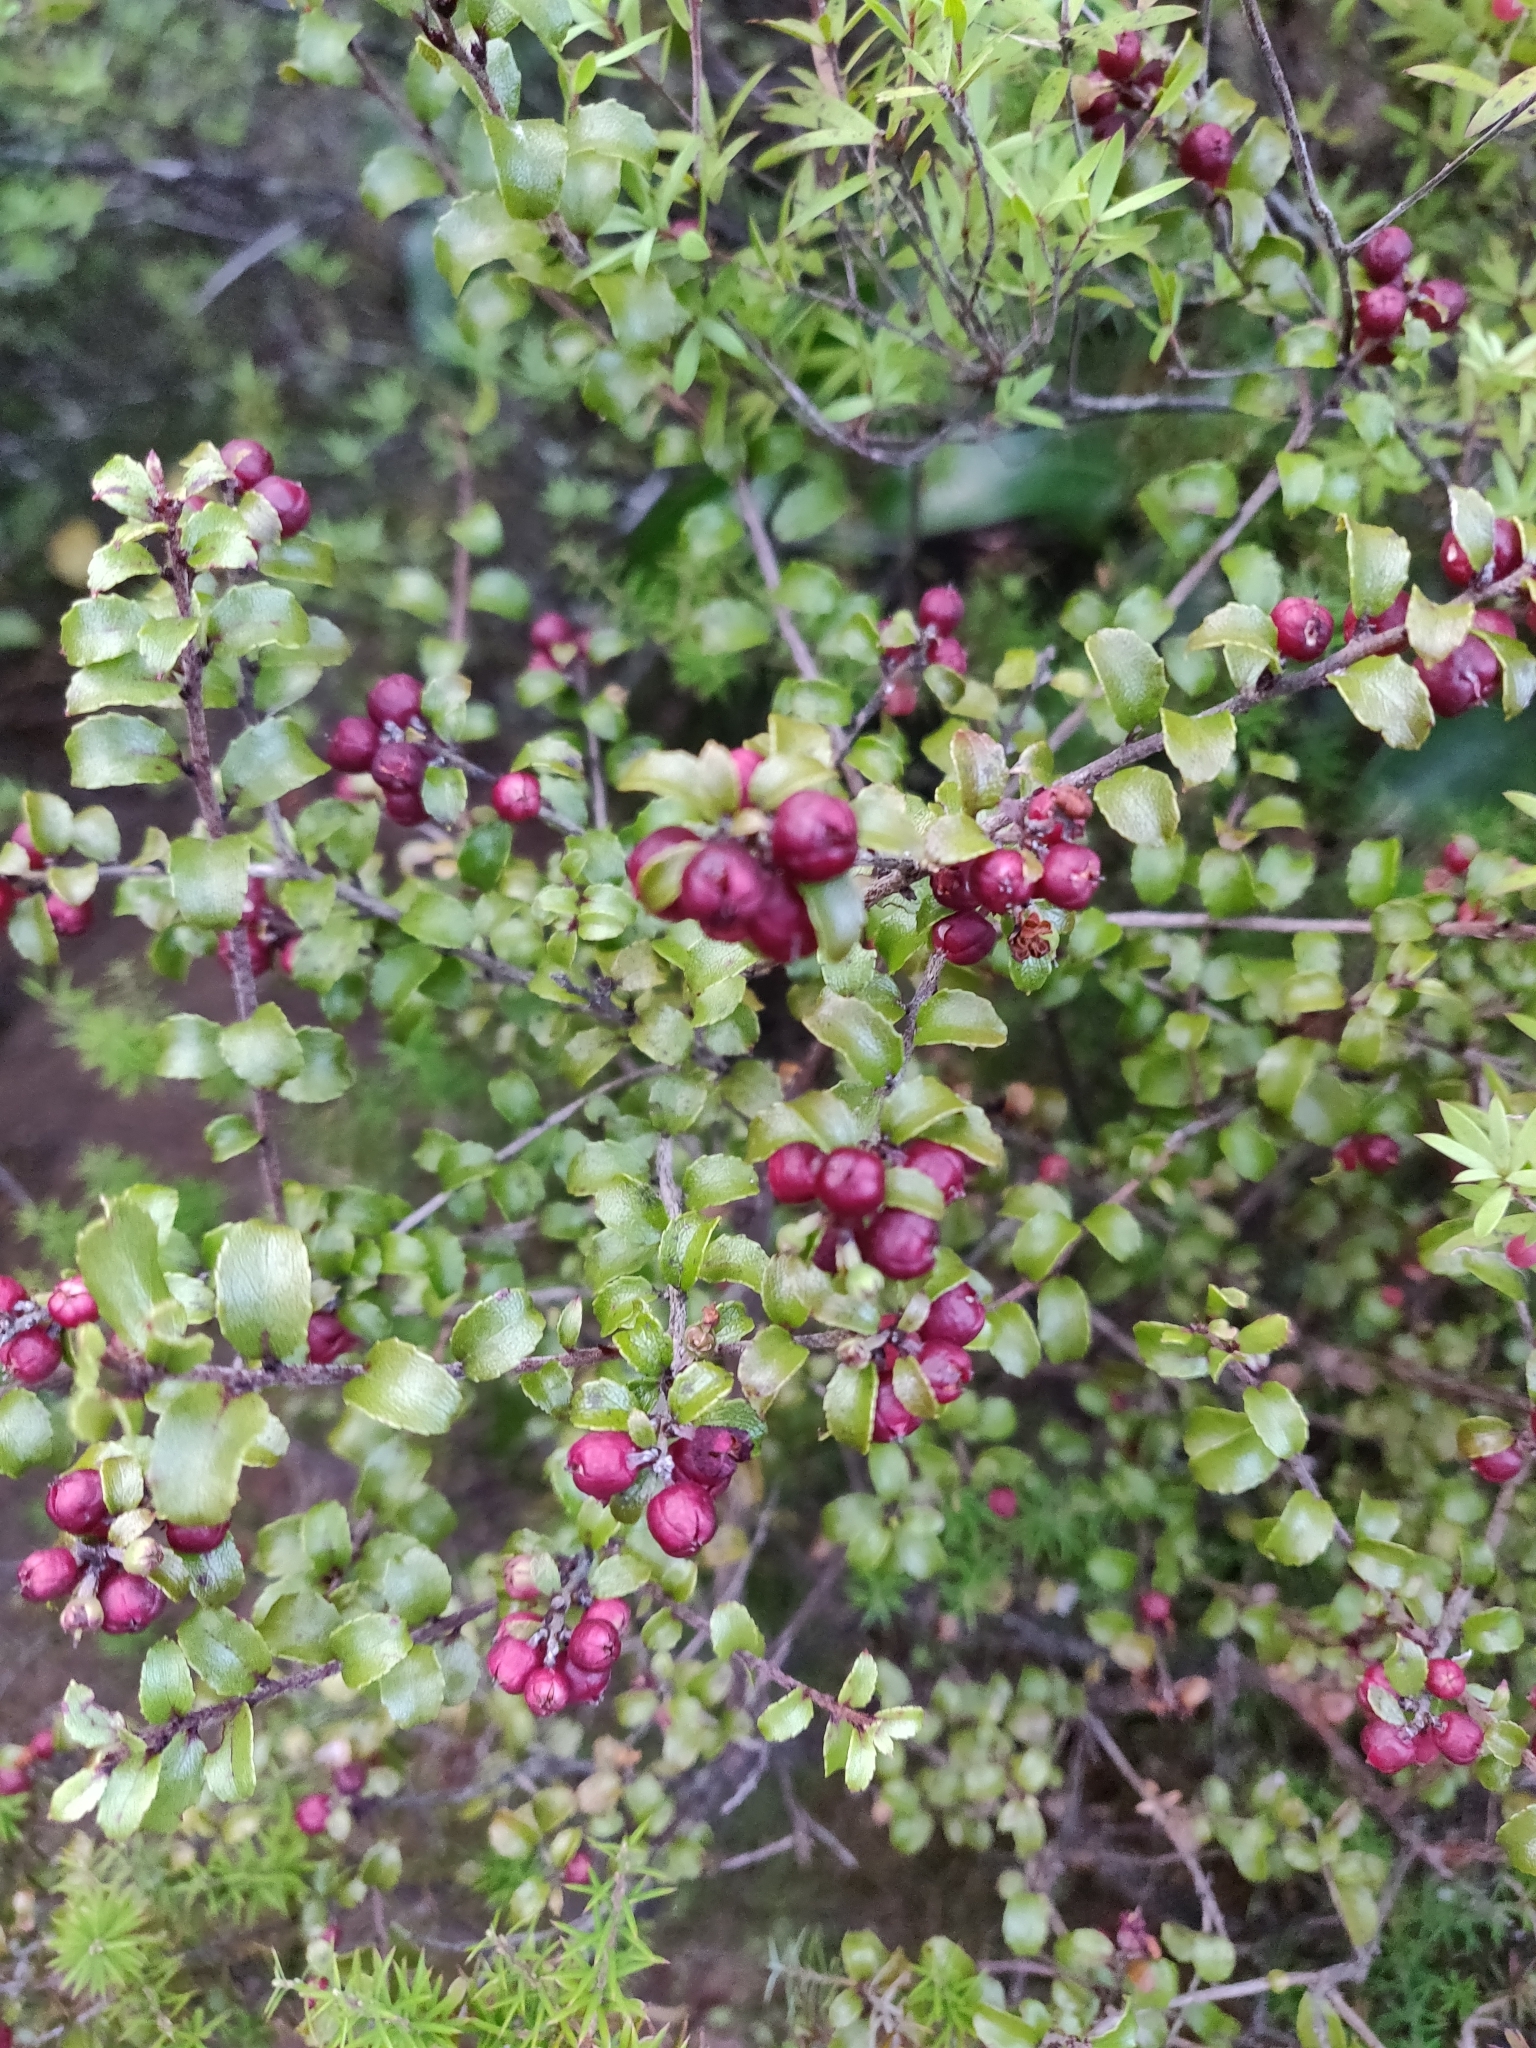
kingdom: Plantae
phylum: Tracheophyta
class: Magnoliopsida
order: Ericales
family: Ericaceae
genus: Gaultheria
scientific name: Gaultheria antipoda
